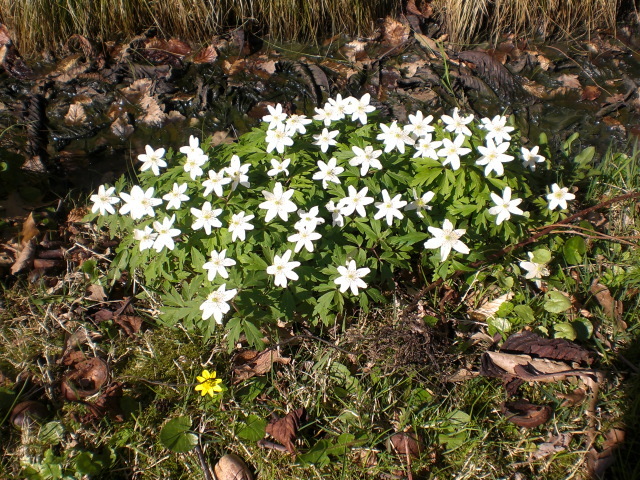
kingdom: Plantae
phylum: Tracheophyta
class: Magnoliopsida
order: Ranunculales
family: Ranunculaceae
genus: Anemone
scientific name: Anemone nemorosa
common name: Wood anemone
